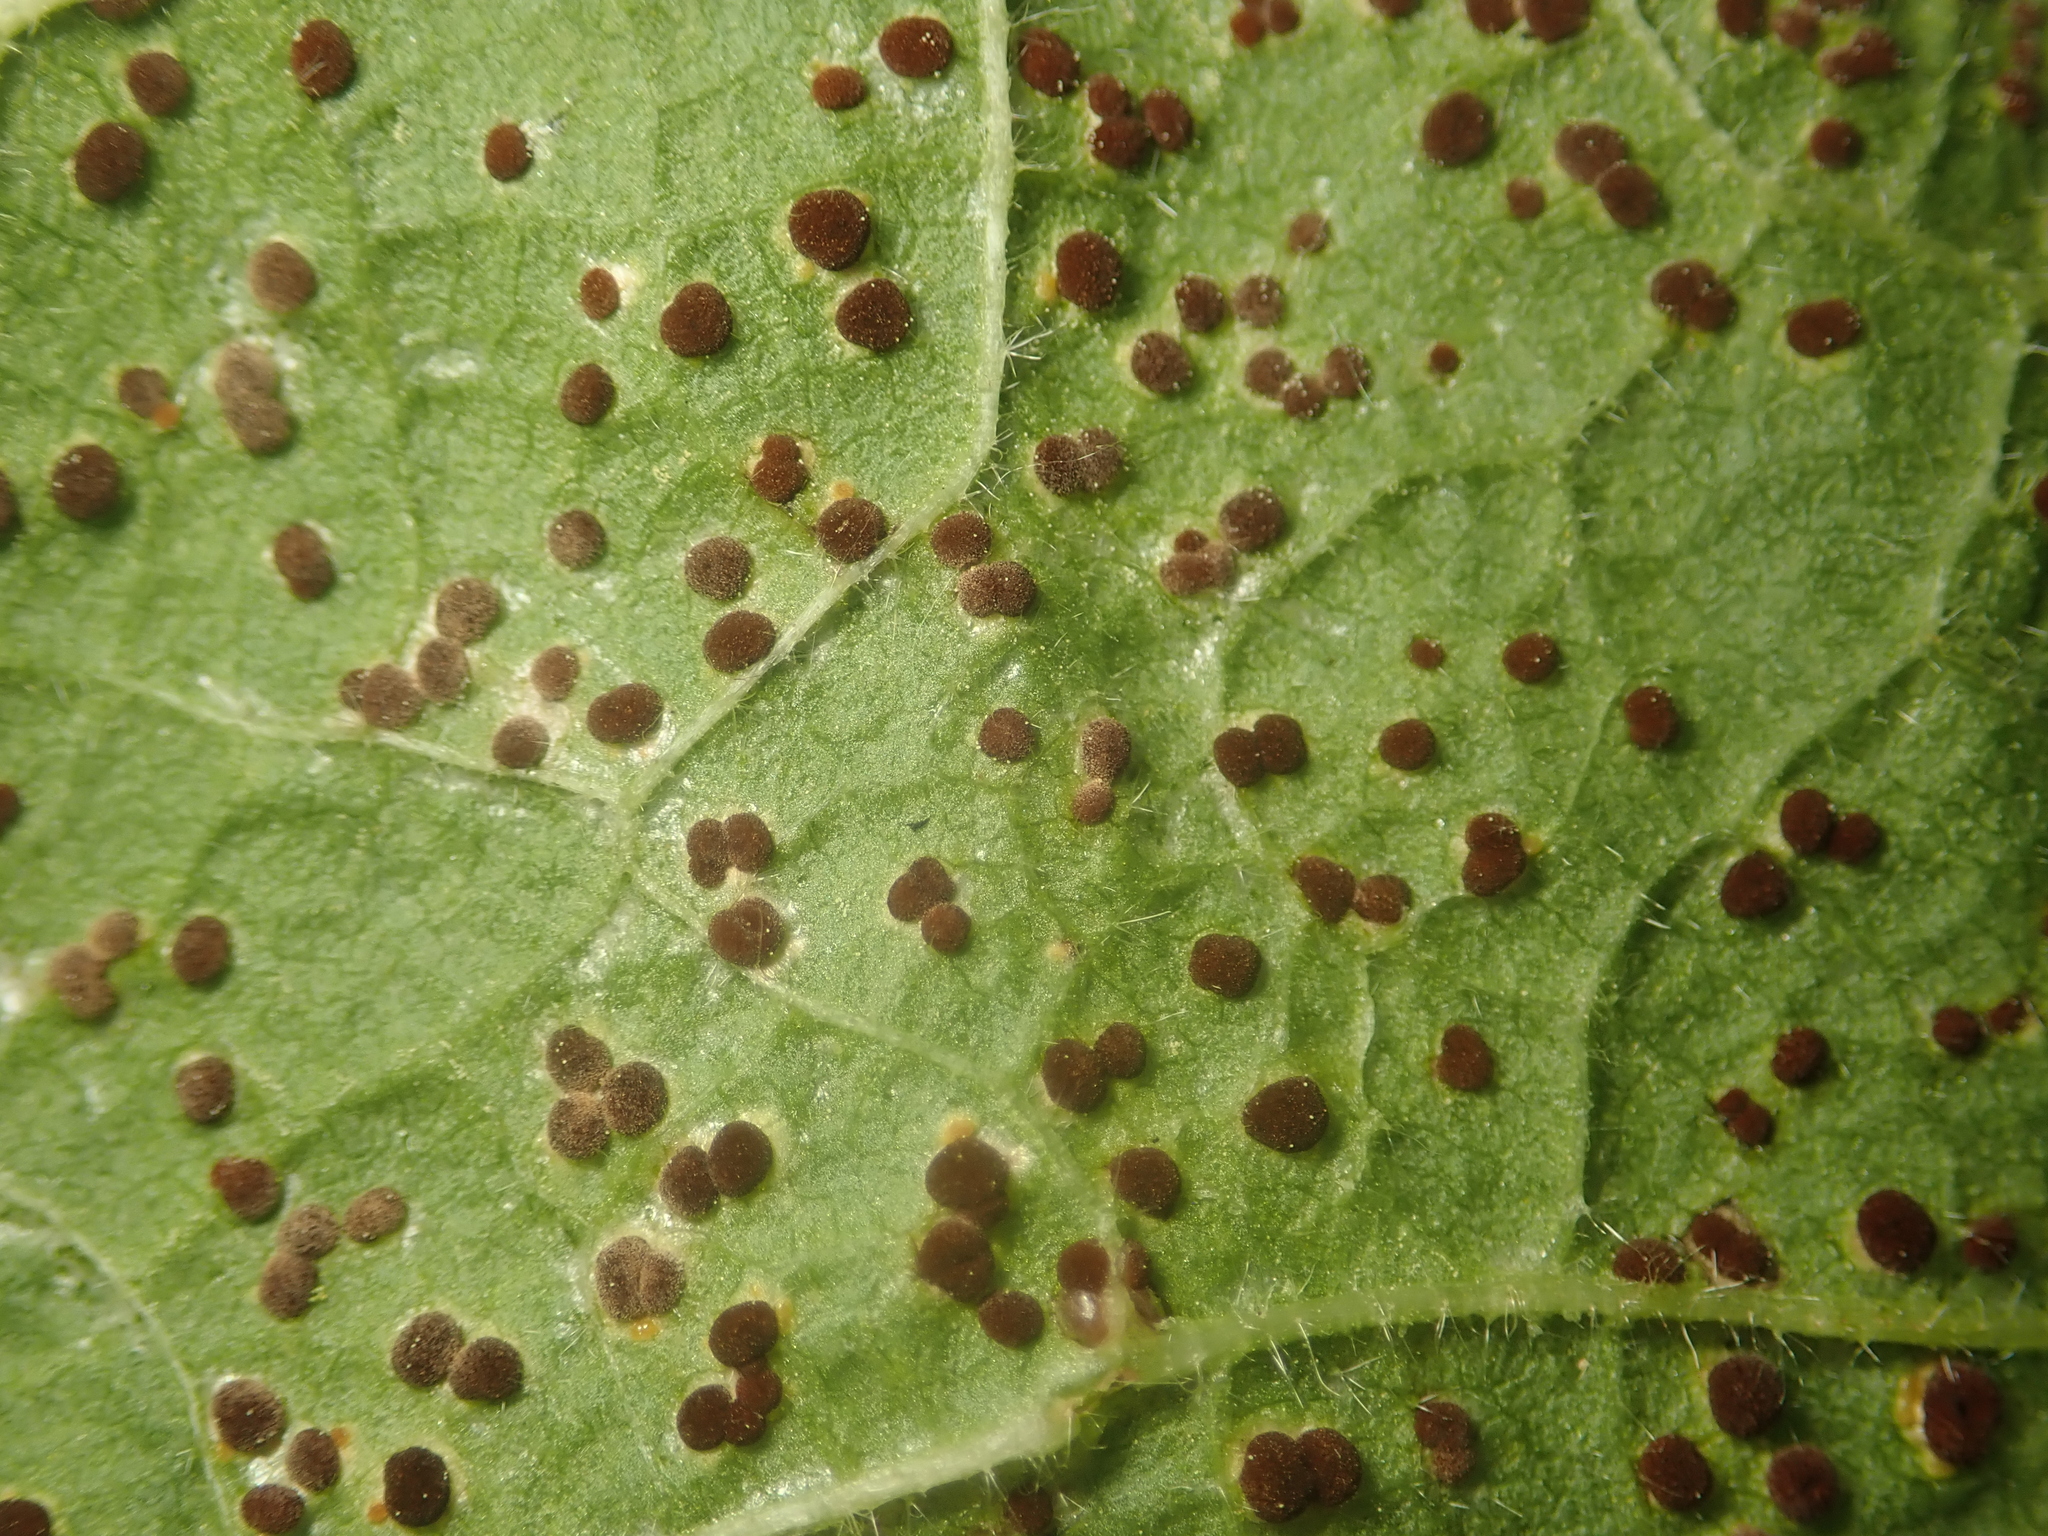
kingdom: Fungi
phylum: Basidiomycota
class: Pucciniomycetes
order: Pucciniales
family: Pucciniaceae
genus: Puccinia
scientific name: Puccinia malvacearum
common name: Hollyhock rust
